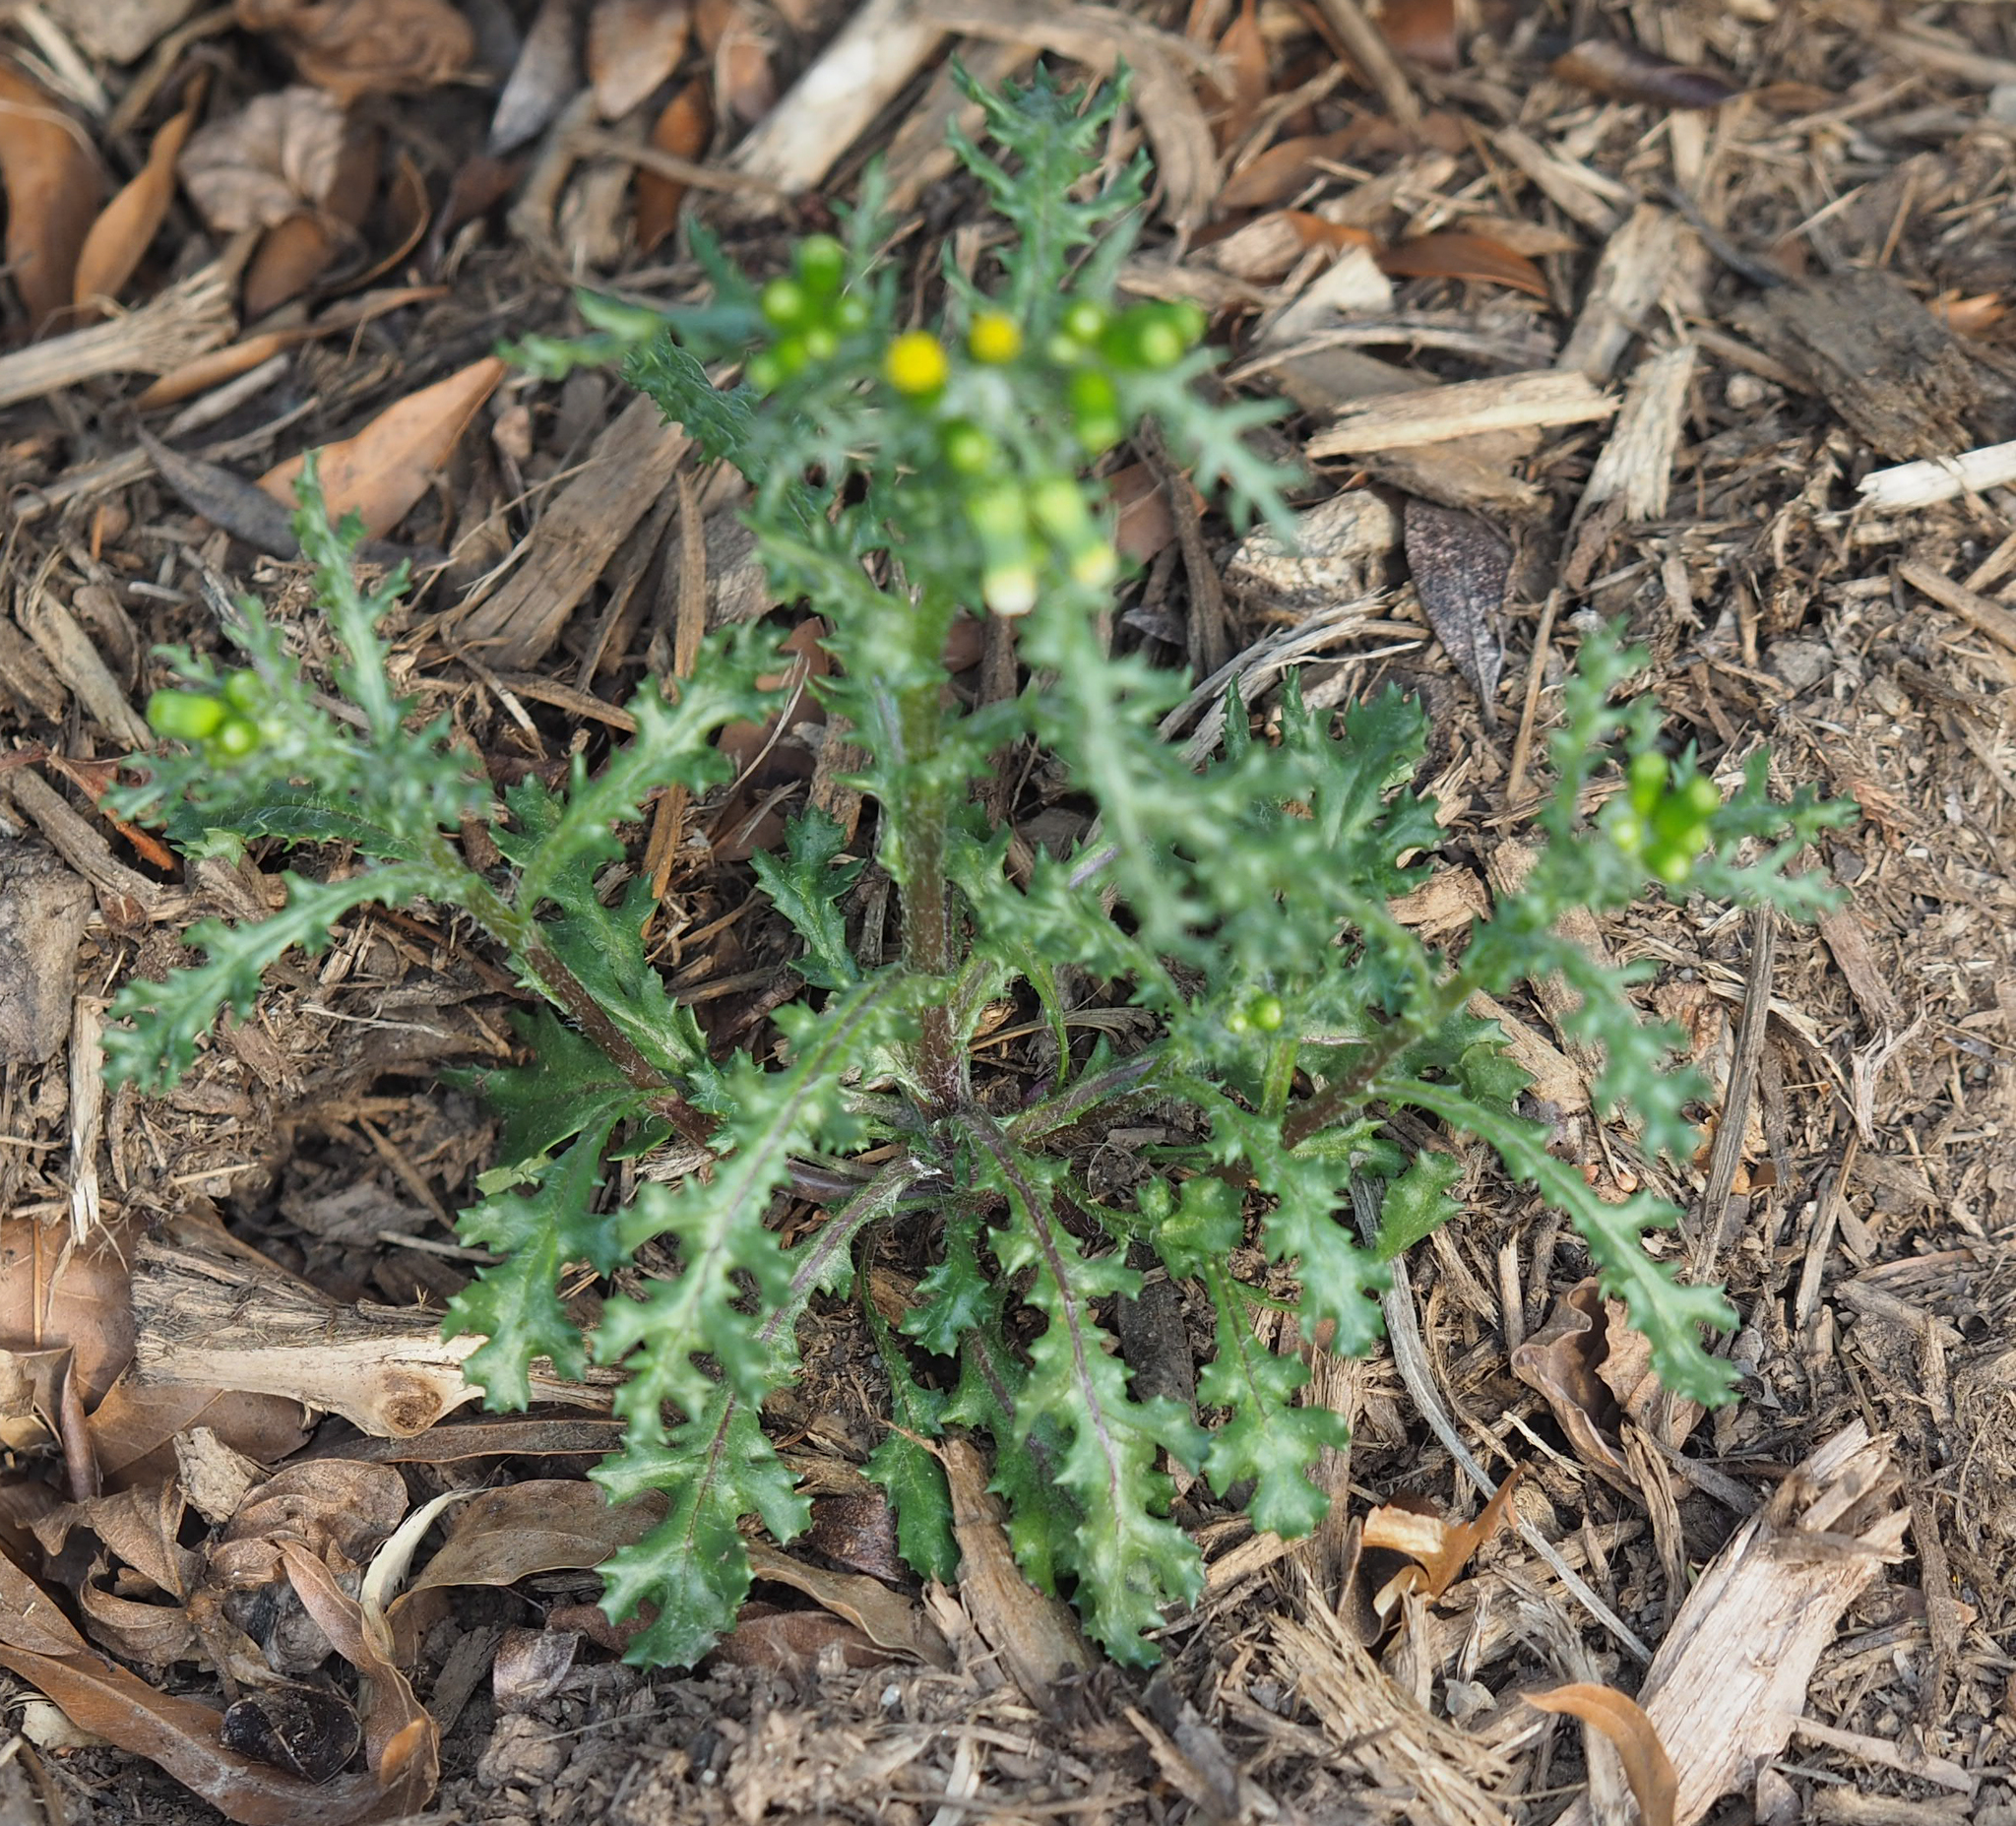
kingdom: Plantae
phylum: Tracheophyta
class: Magnoliopsida
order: Asterales
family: Asteraceae
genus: Senecio
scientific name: Senecio vulgaris
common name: Old-man-in-the-spring
